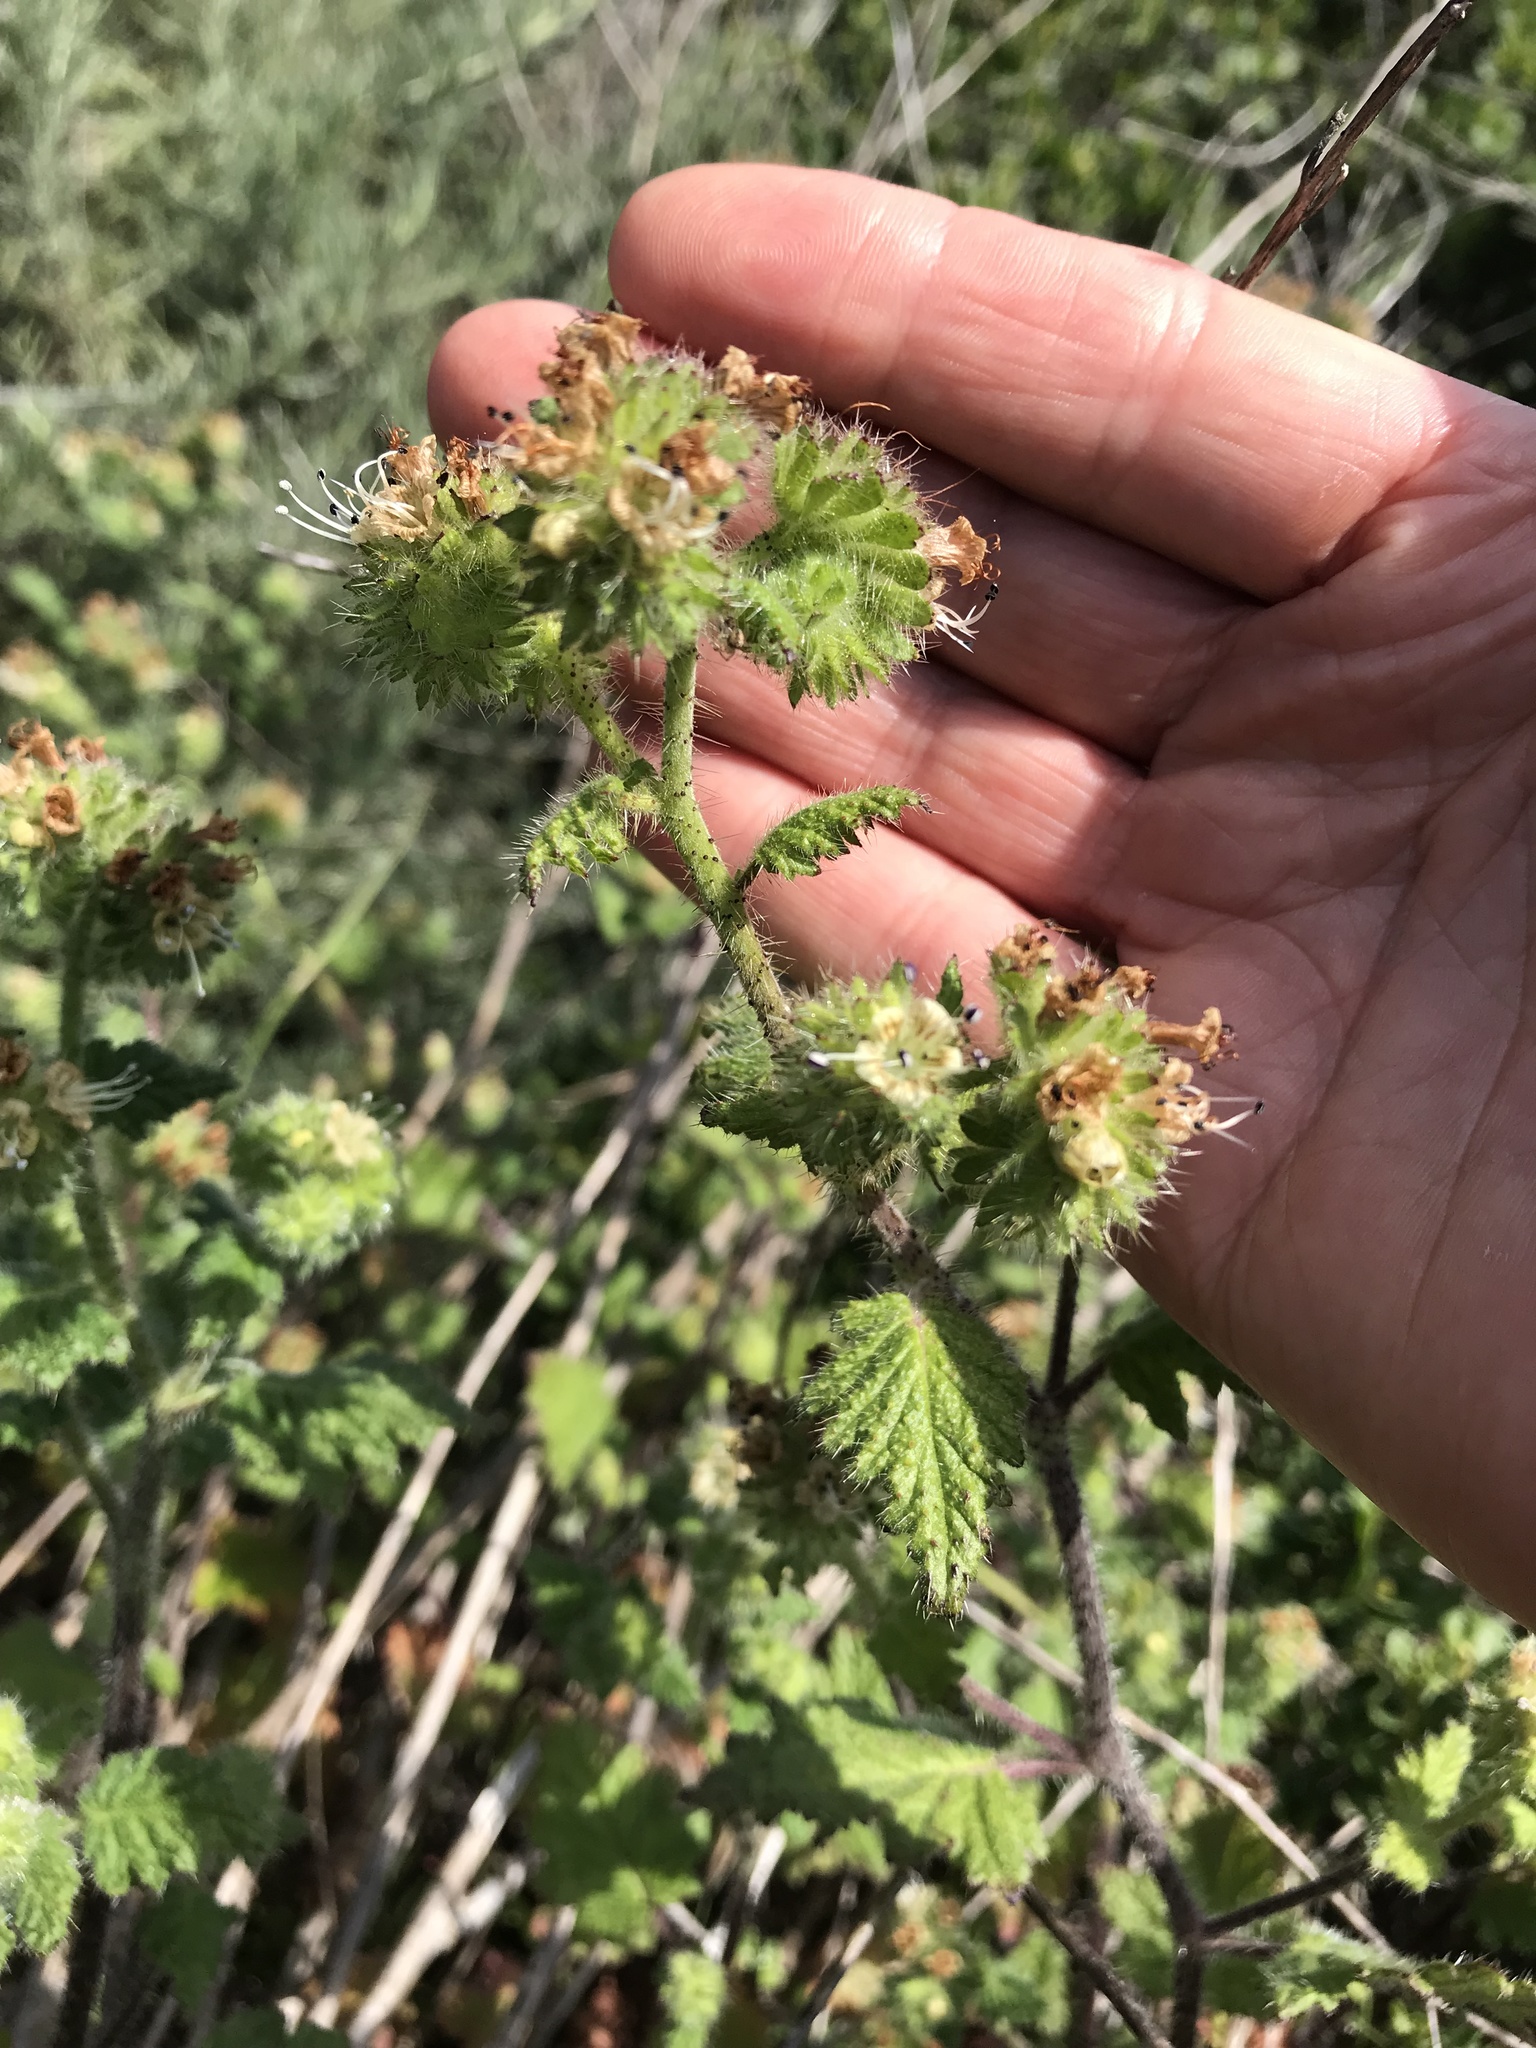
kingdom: Plantae
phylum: Tracheophyta
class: Magnoliopsida
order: Boraginales
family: Hydrophyllaceae
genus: Phacelia
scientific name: Phacelia malvifolia
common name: Mallow-leaf phacelia
